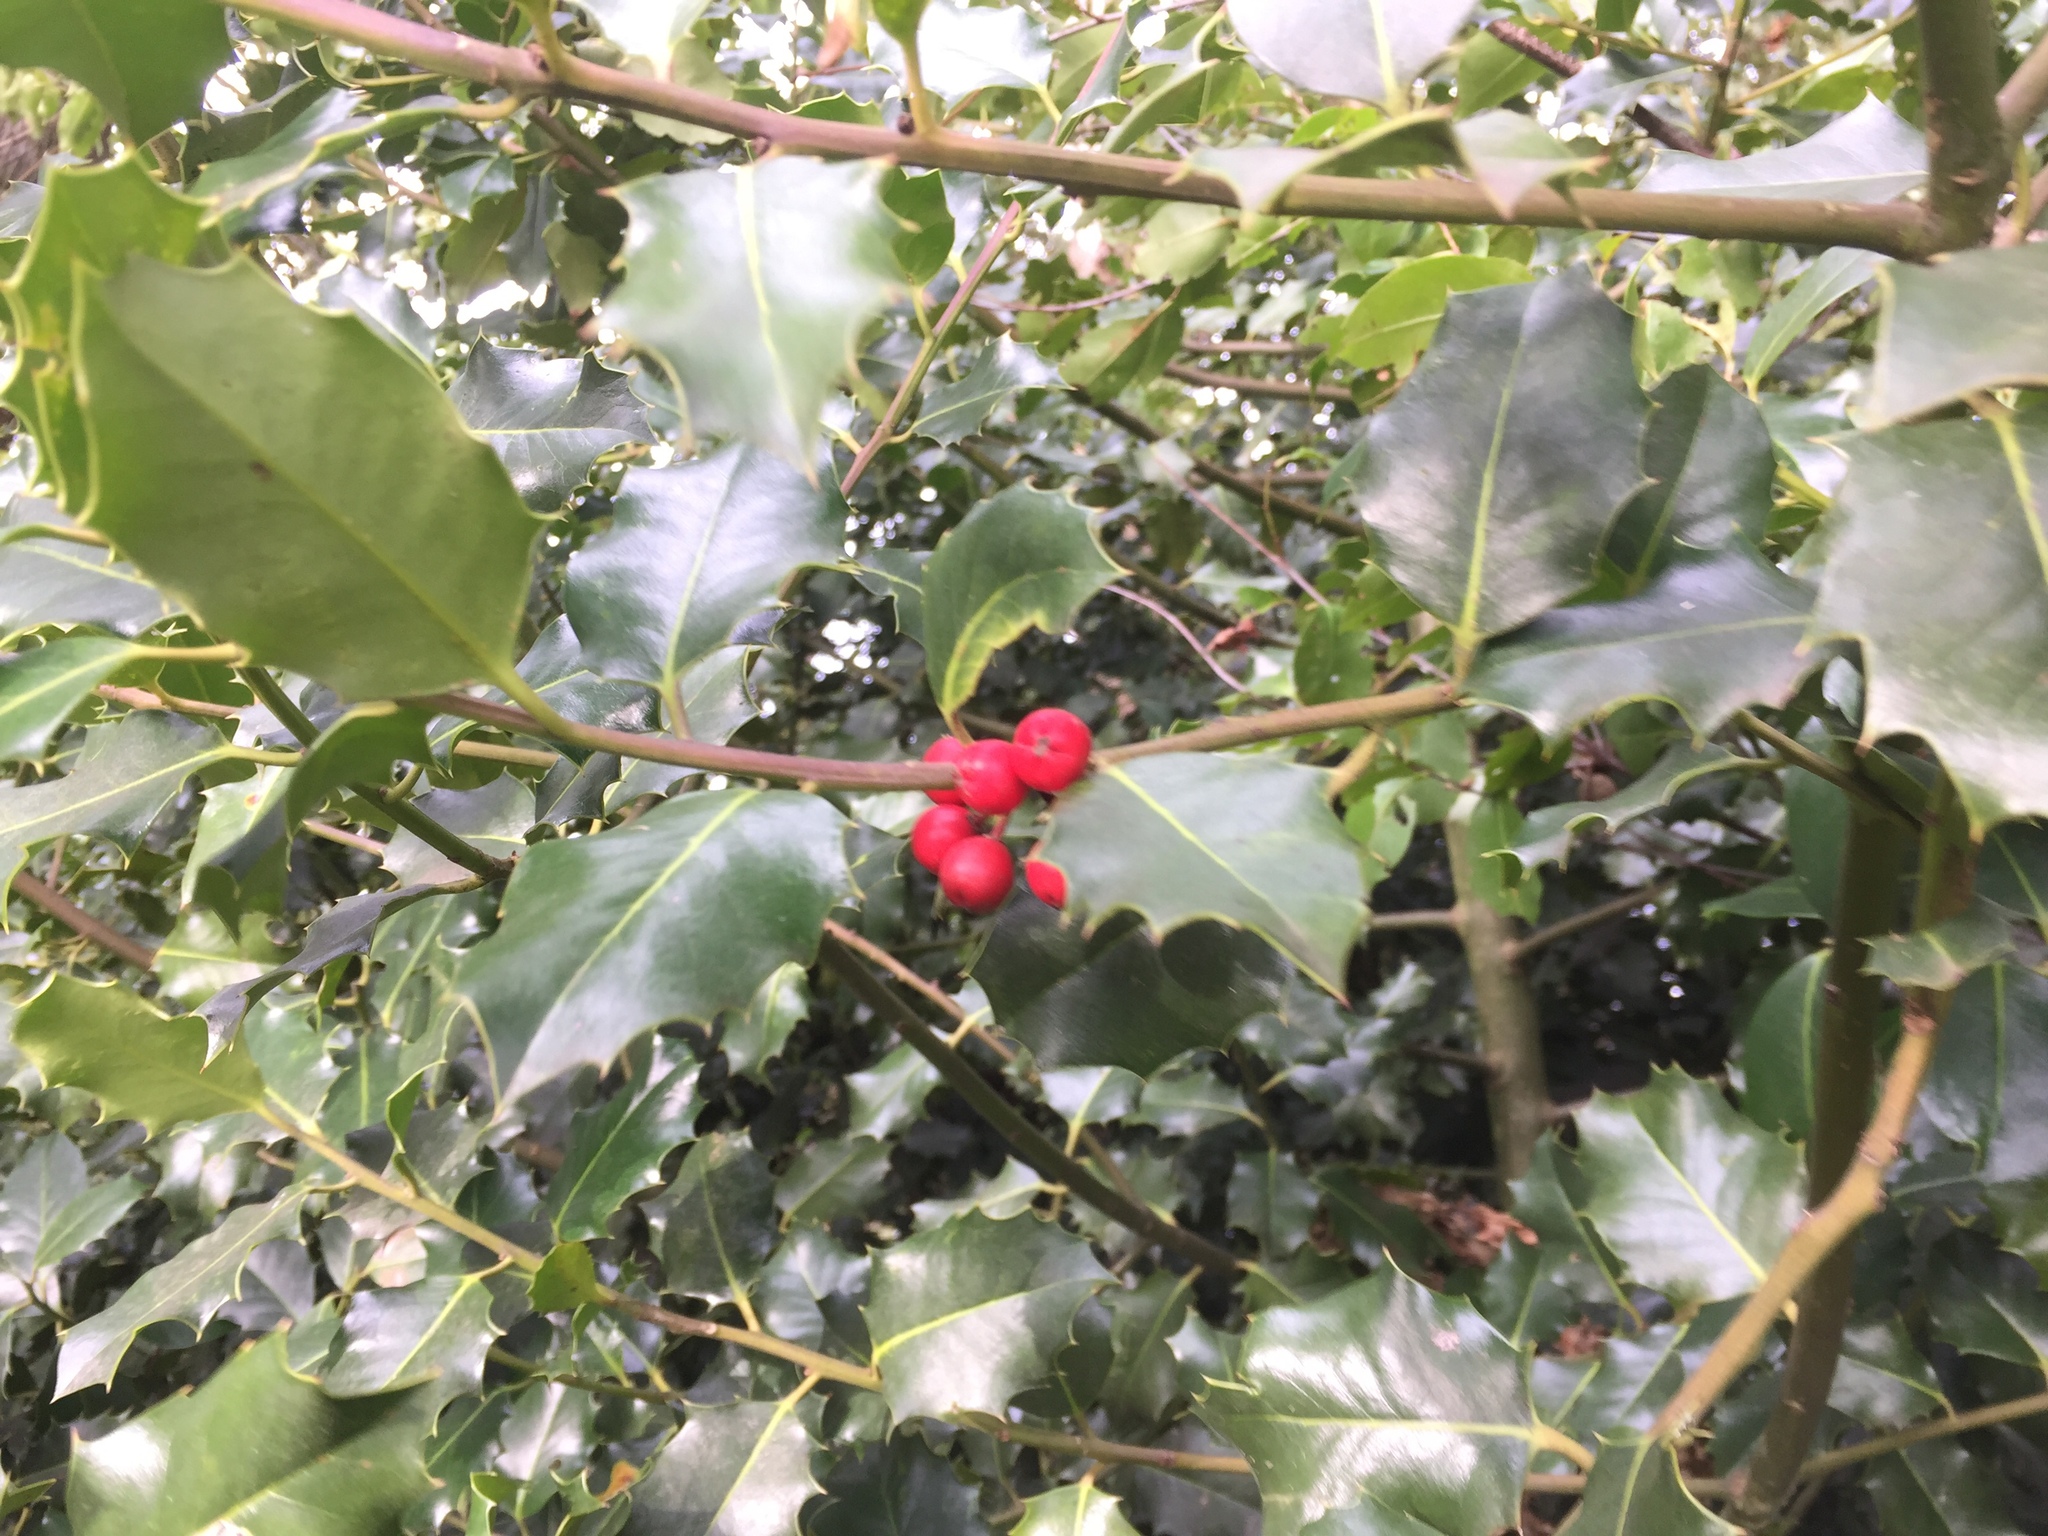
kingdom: Plantae
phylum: Tracheophyta
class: Magnoliopsida
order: Aquifoliales
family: Aquifoliaceae
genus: Ilex
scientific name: Ilex aquifolium
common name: English holly
